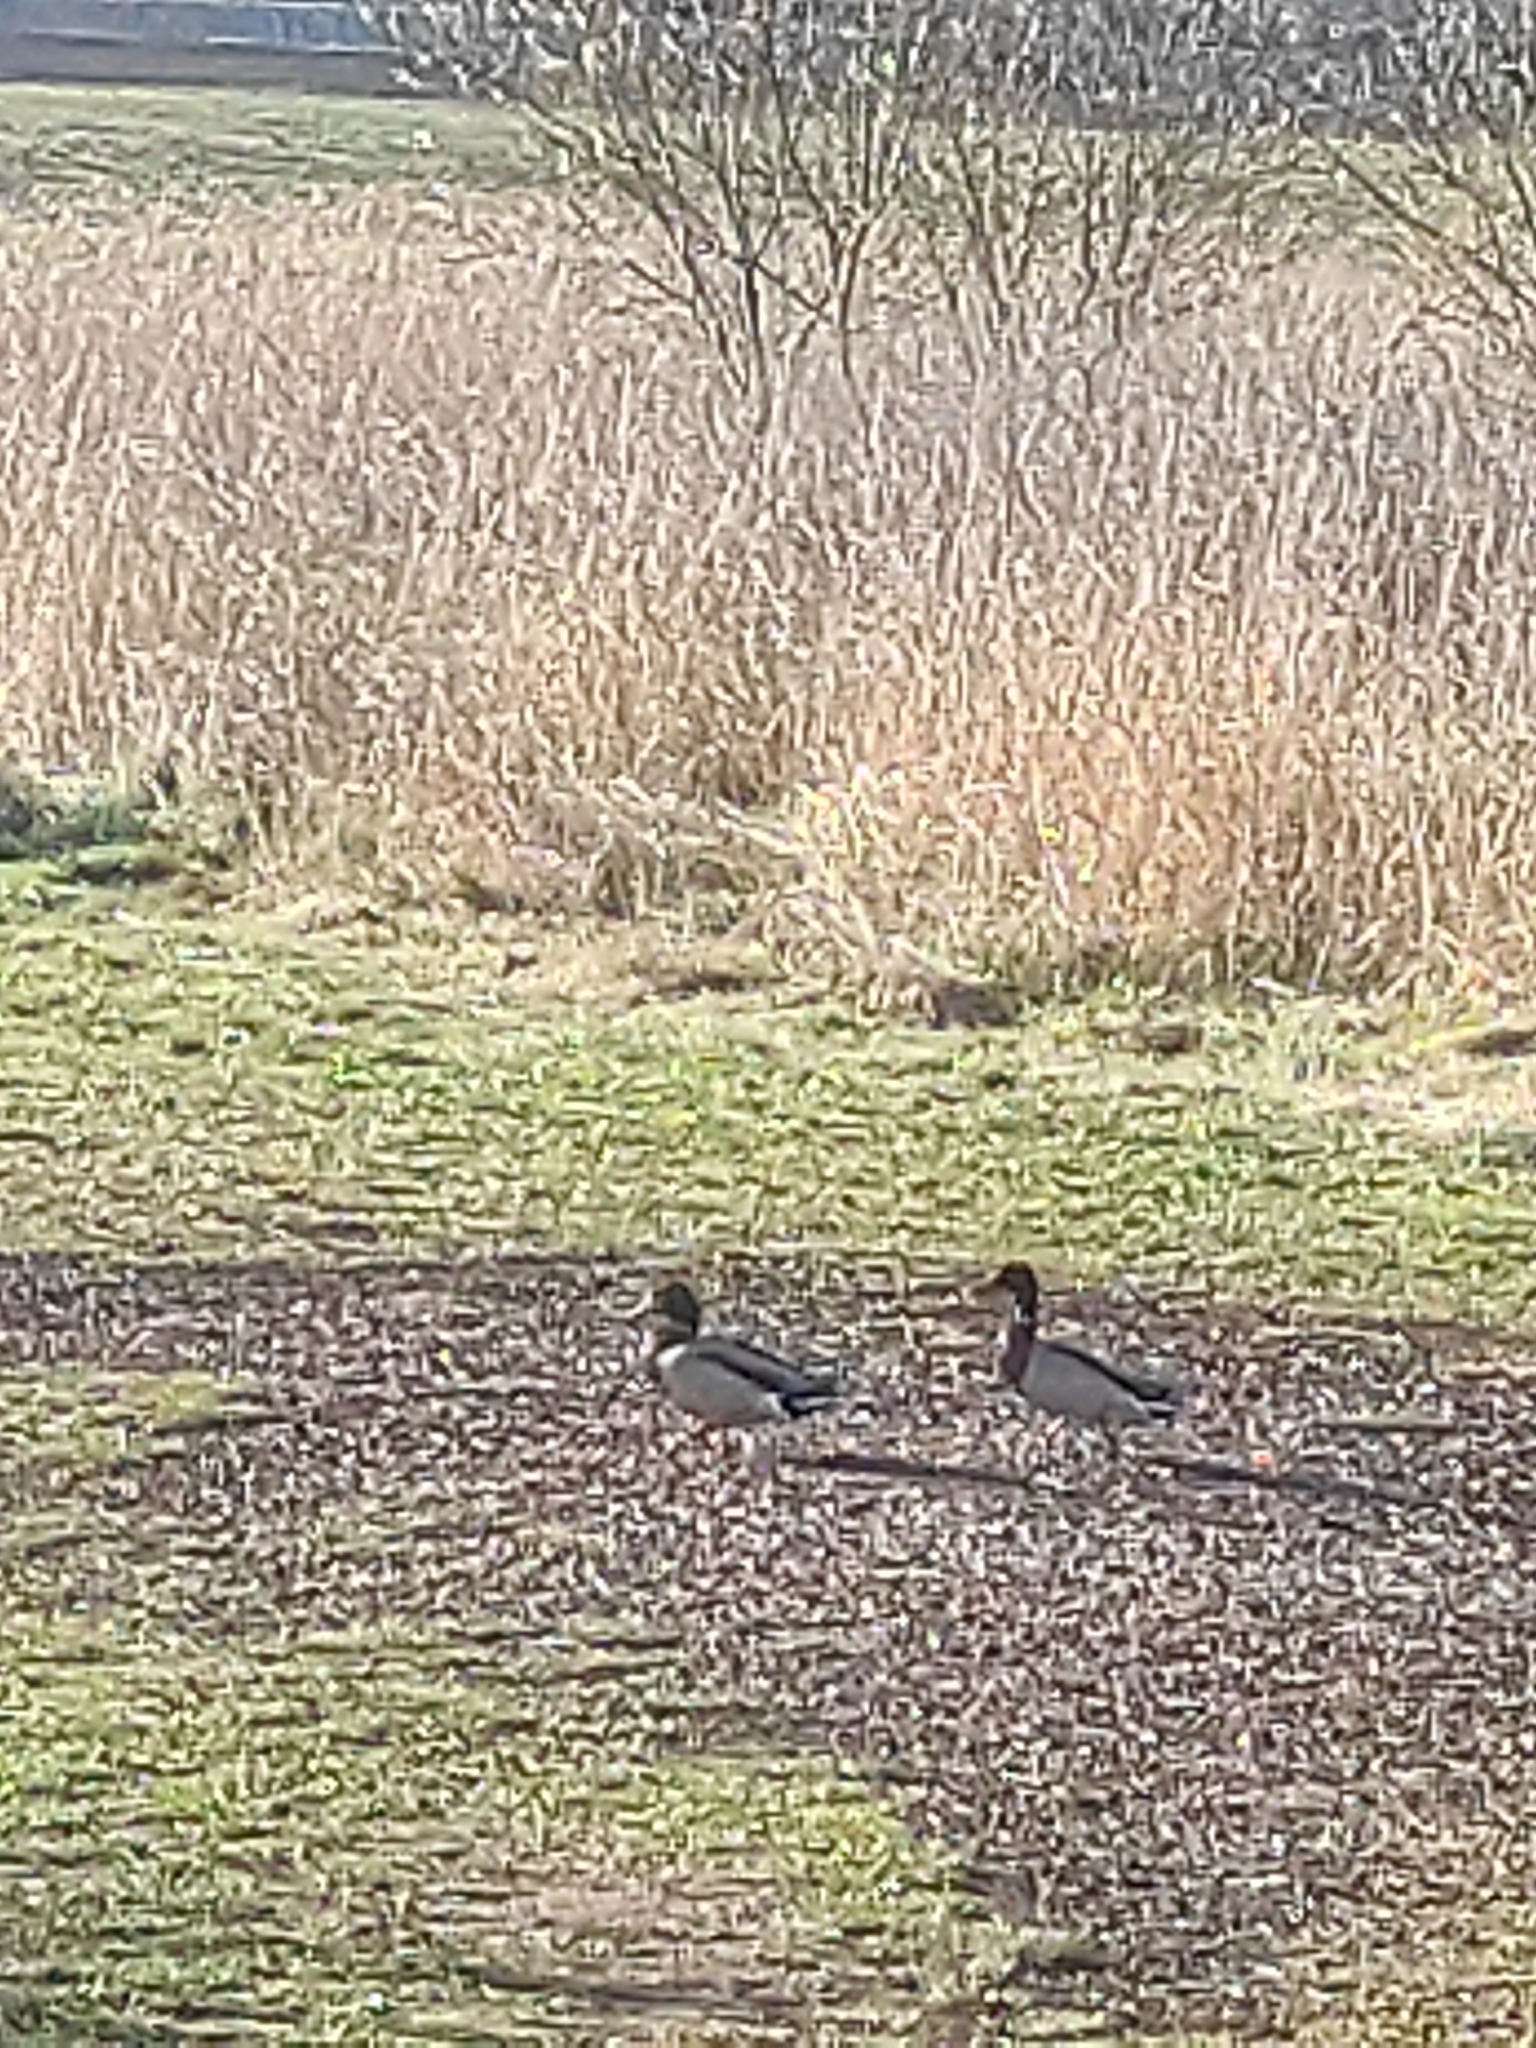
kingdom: Animalia
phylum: Chordata
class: Aves
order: Anseriformes
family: Anatidae
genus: Anas
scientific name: Anas platyrhynchos
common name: Mallard
